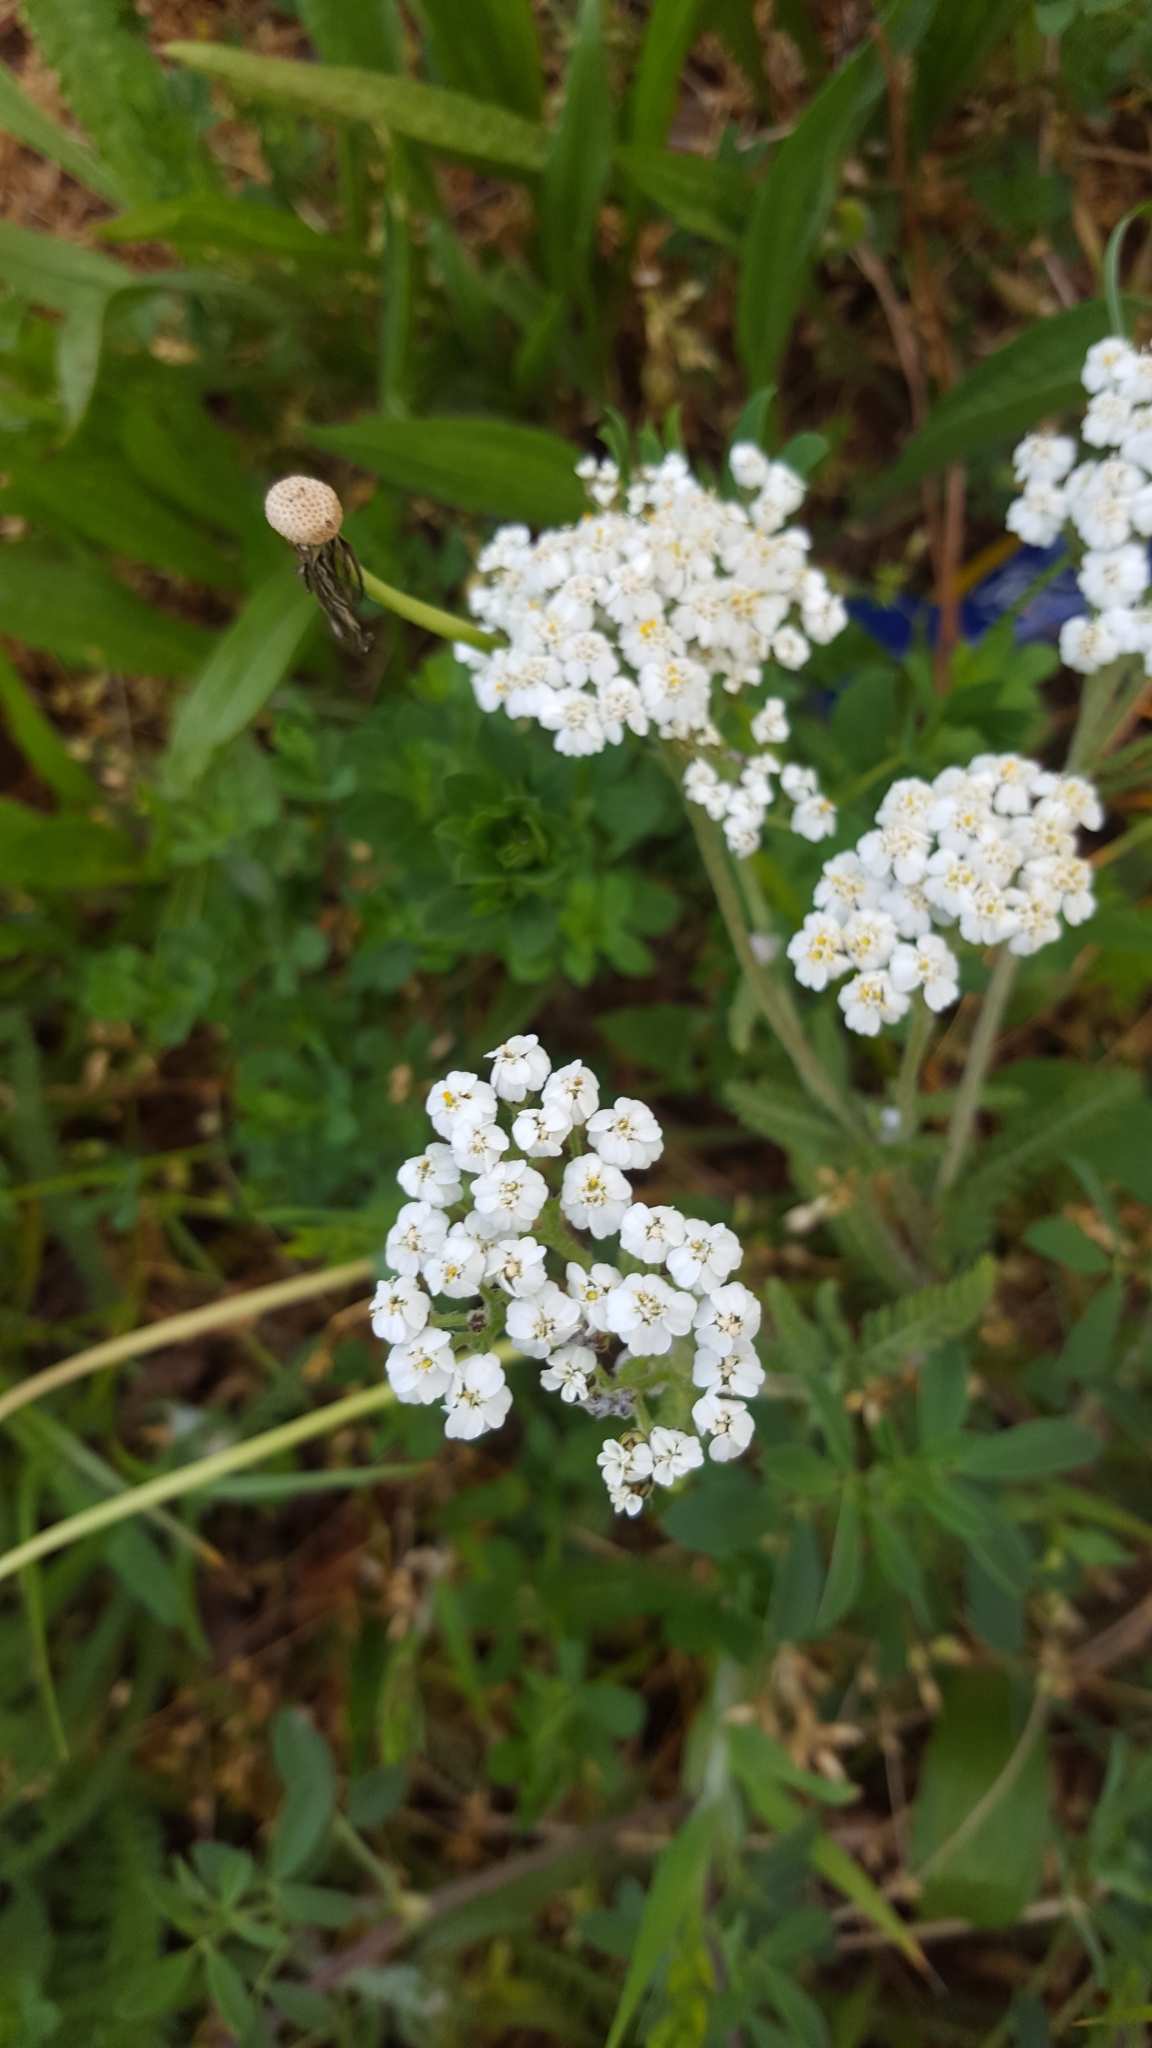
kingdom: Plantae
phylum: Tracheophyta
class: Magnoliopsida
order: Asterales
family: Asteraceae
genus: Achillea
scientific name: Achillea millefolium
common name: Yarrow
